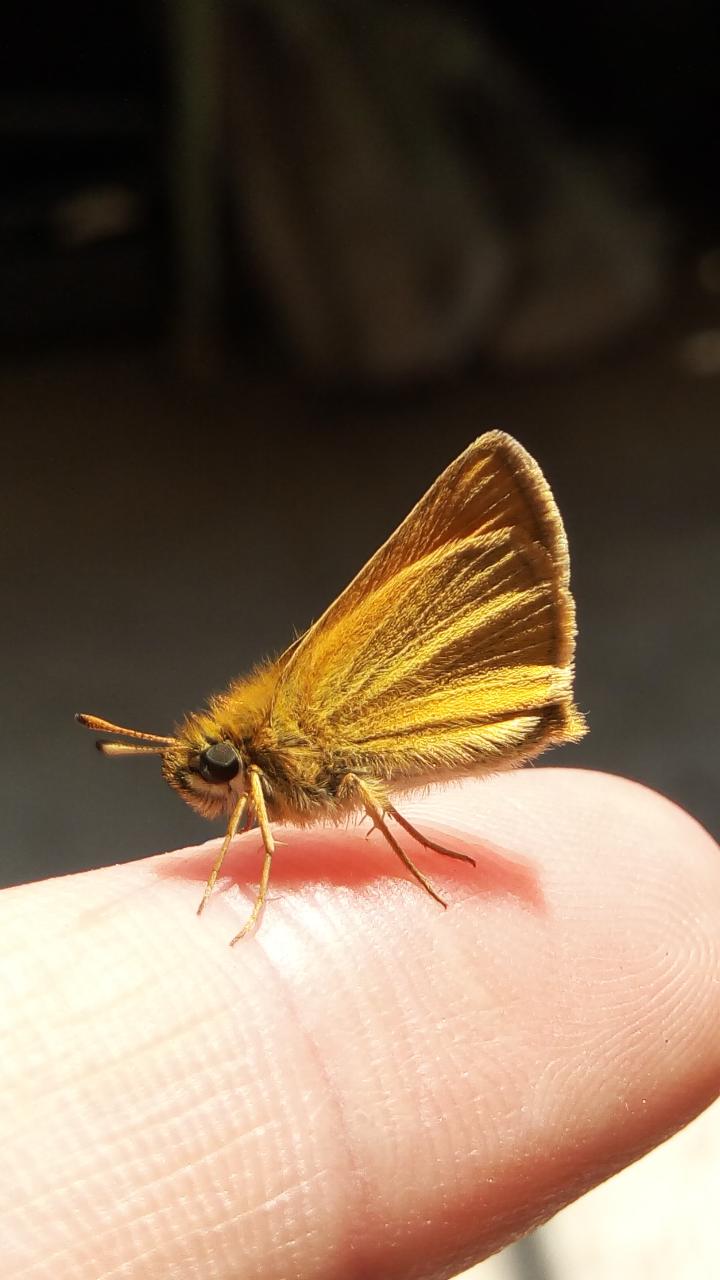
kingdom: Animalia
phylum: Arthropoda
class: Insecta
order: Lepidoptera
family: Hesperiidae
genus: Thymelicus
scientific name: Thymelicus lineola
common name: Essex skipper
